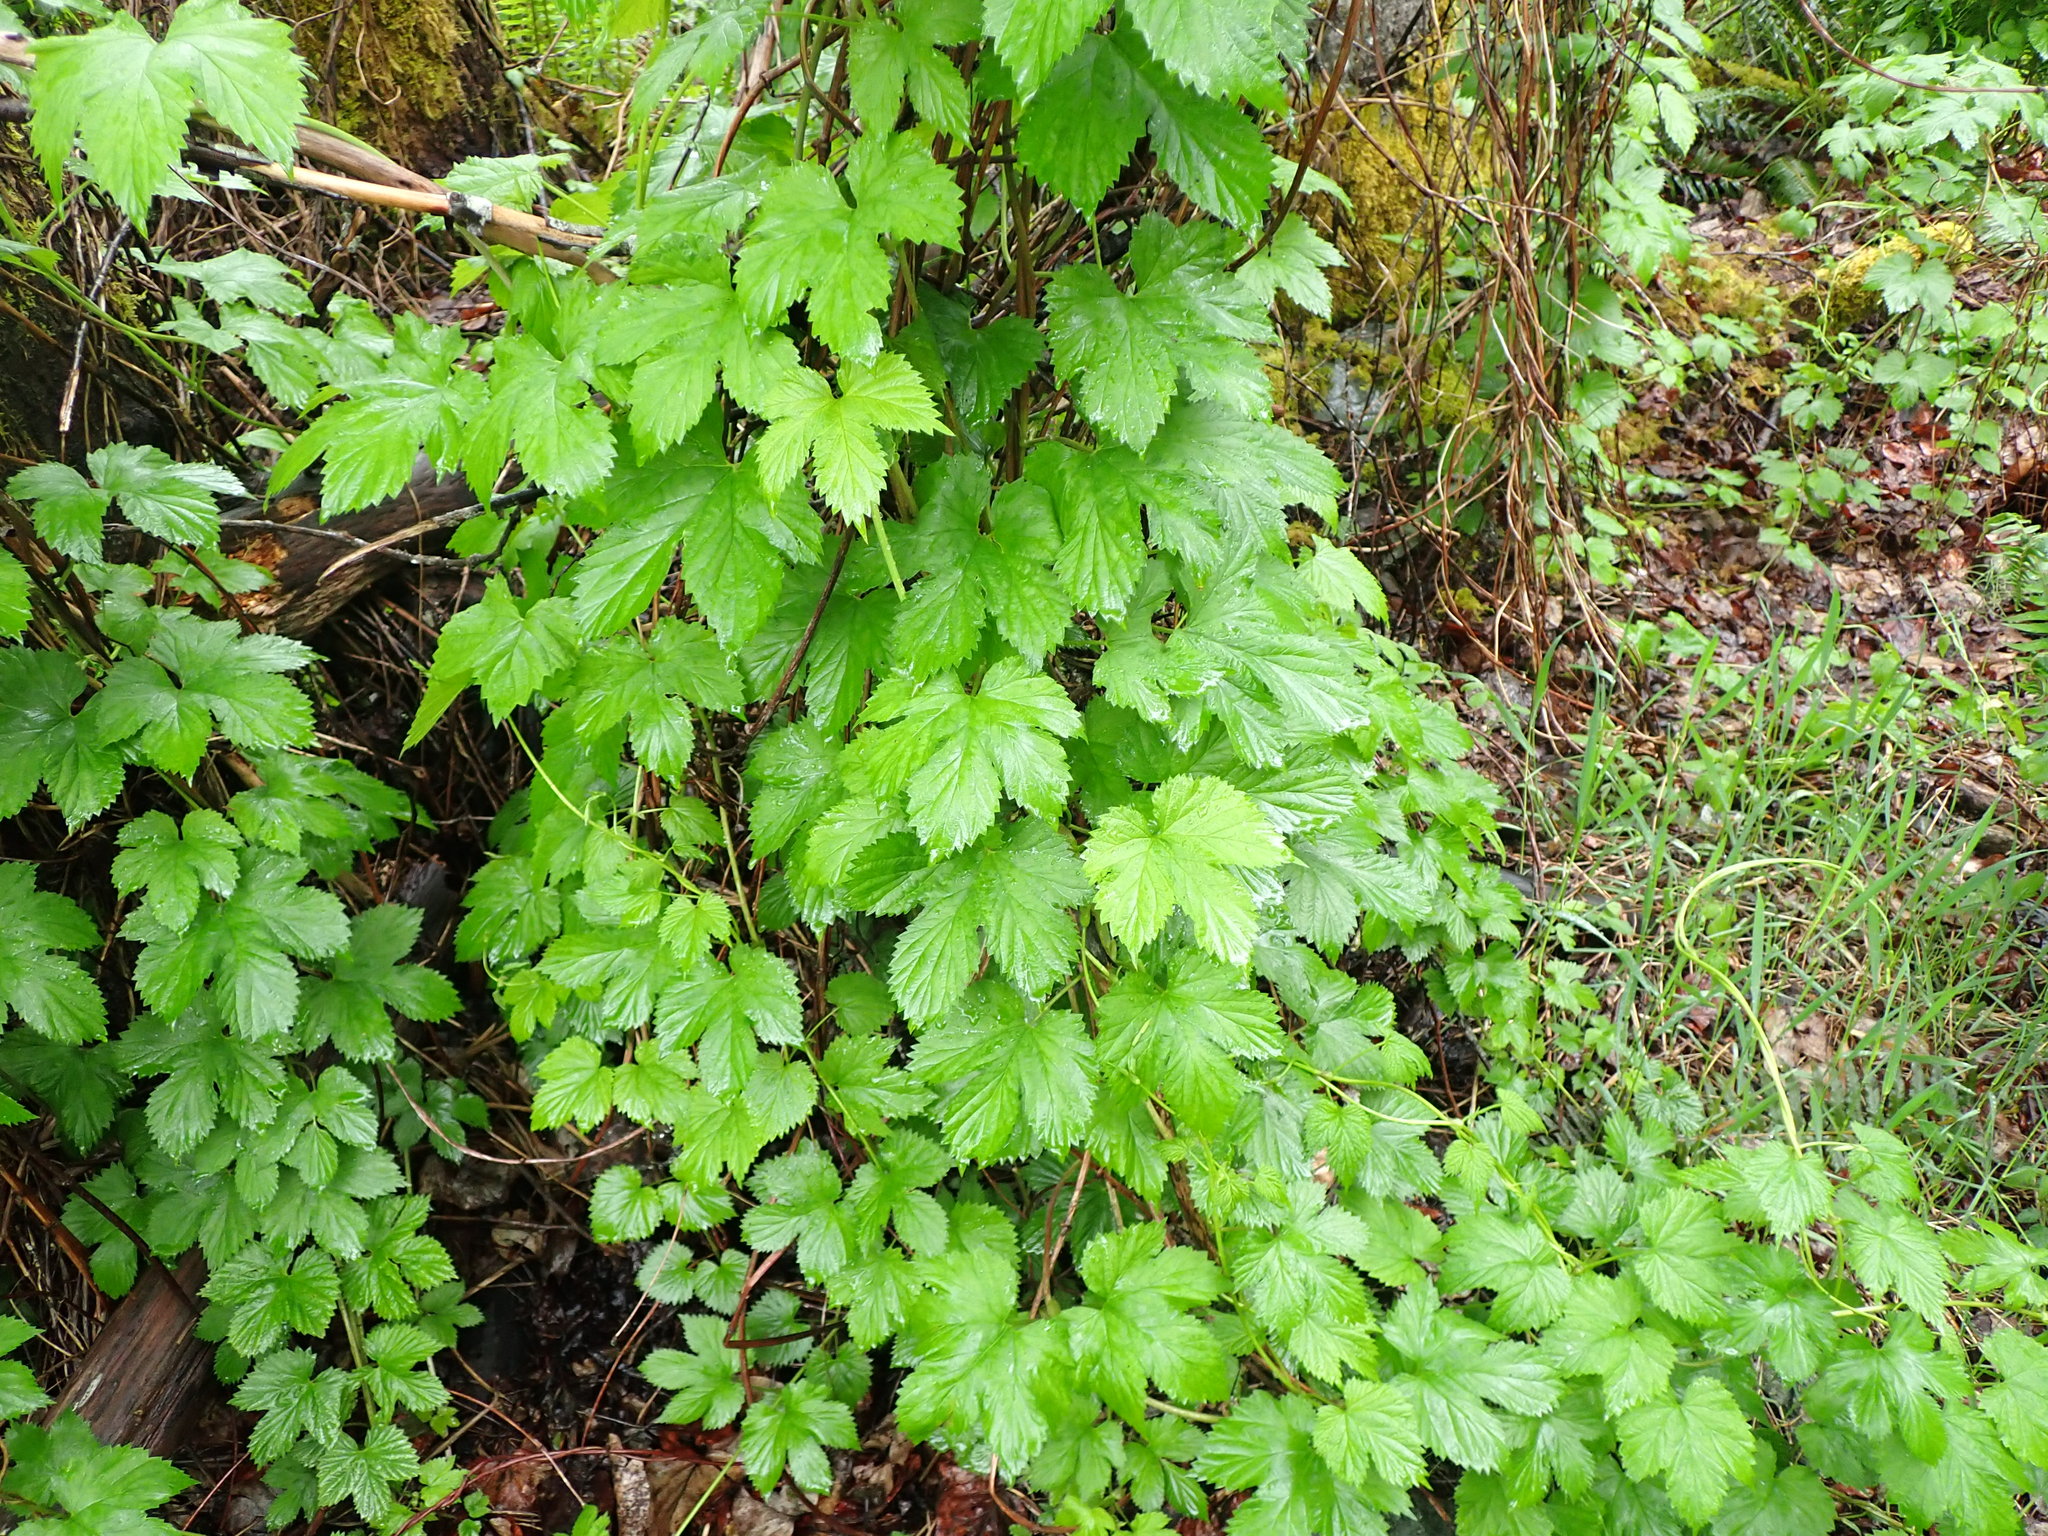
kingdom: Plantae
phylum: Tracheophyta
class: Magnoliopsida
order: Rosales
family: Cannabaceae
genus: Humulus
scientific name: Humulus lupulus
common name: Hop
